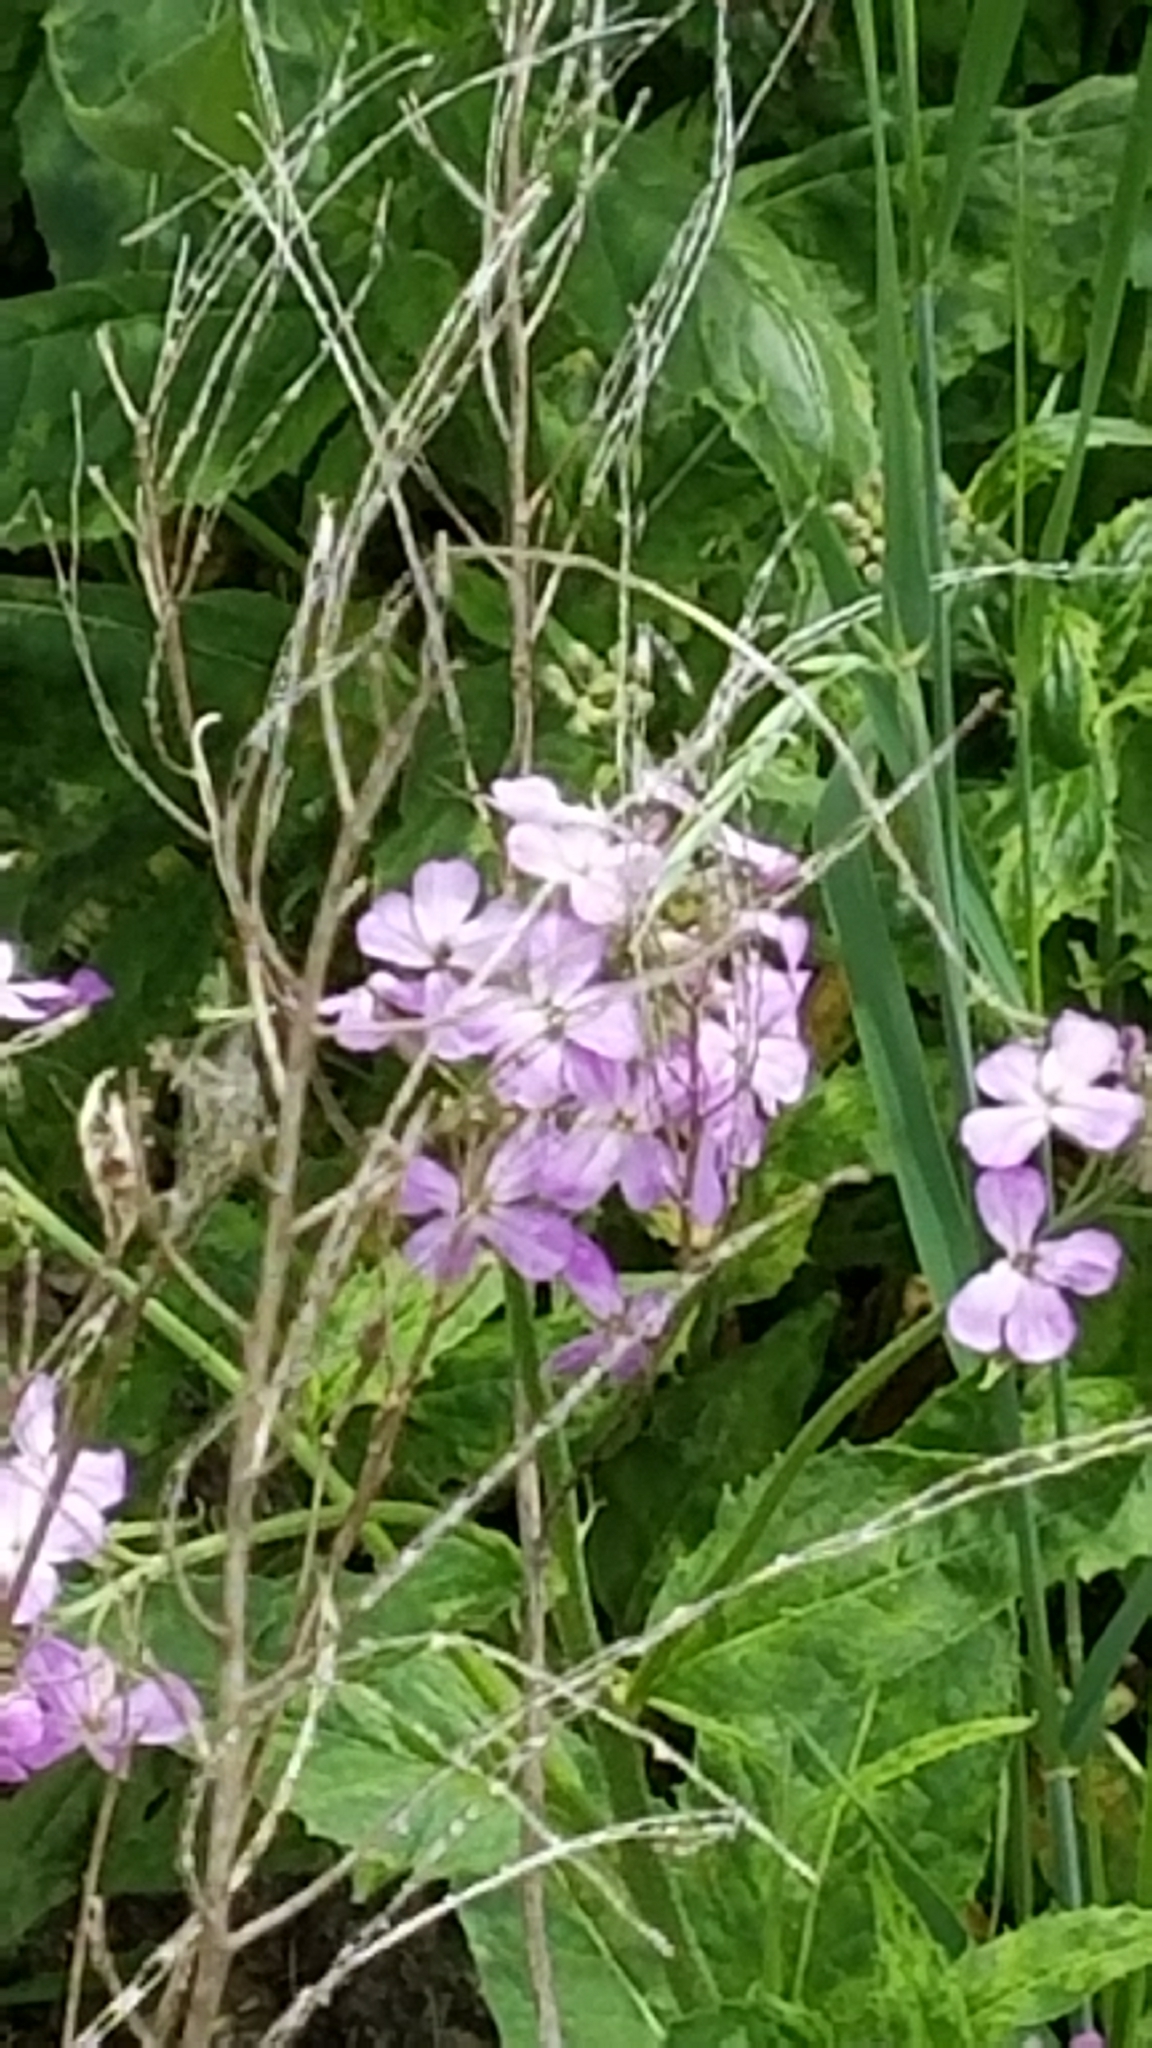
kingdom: Plantae
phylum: Tracheophyta
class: Magnoliopsida
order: Brassicales
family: Brassicaceae
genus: Hesperis
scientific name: Hesperis matronalis
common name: Dame's-violet
